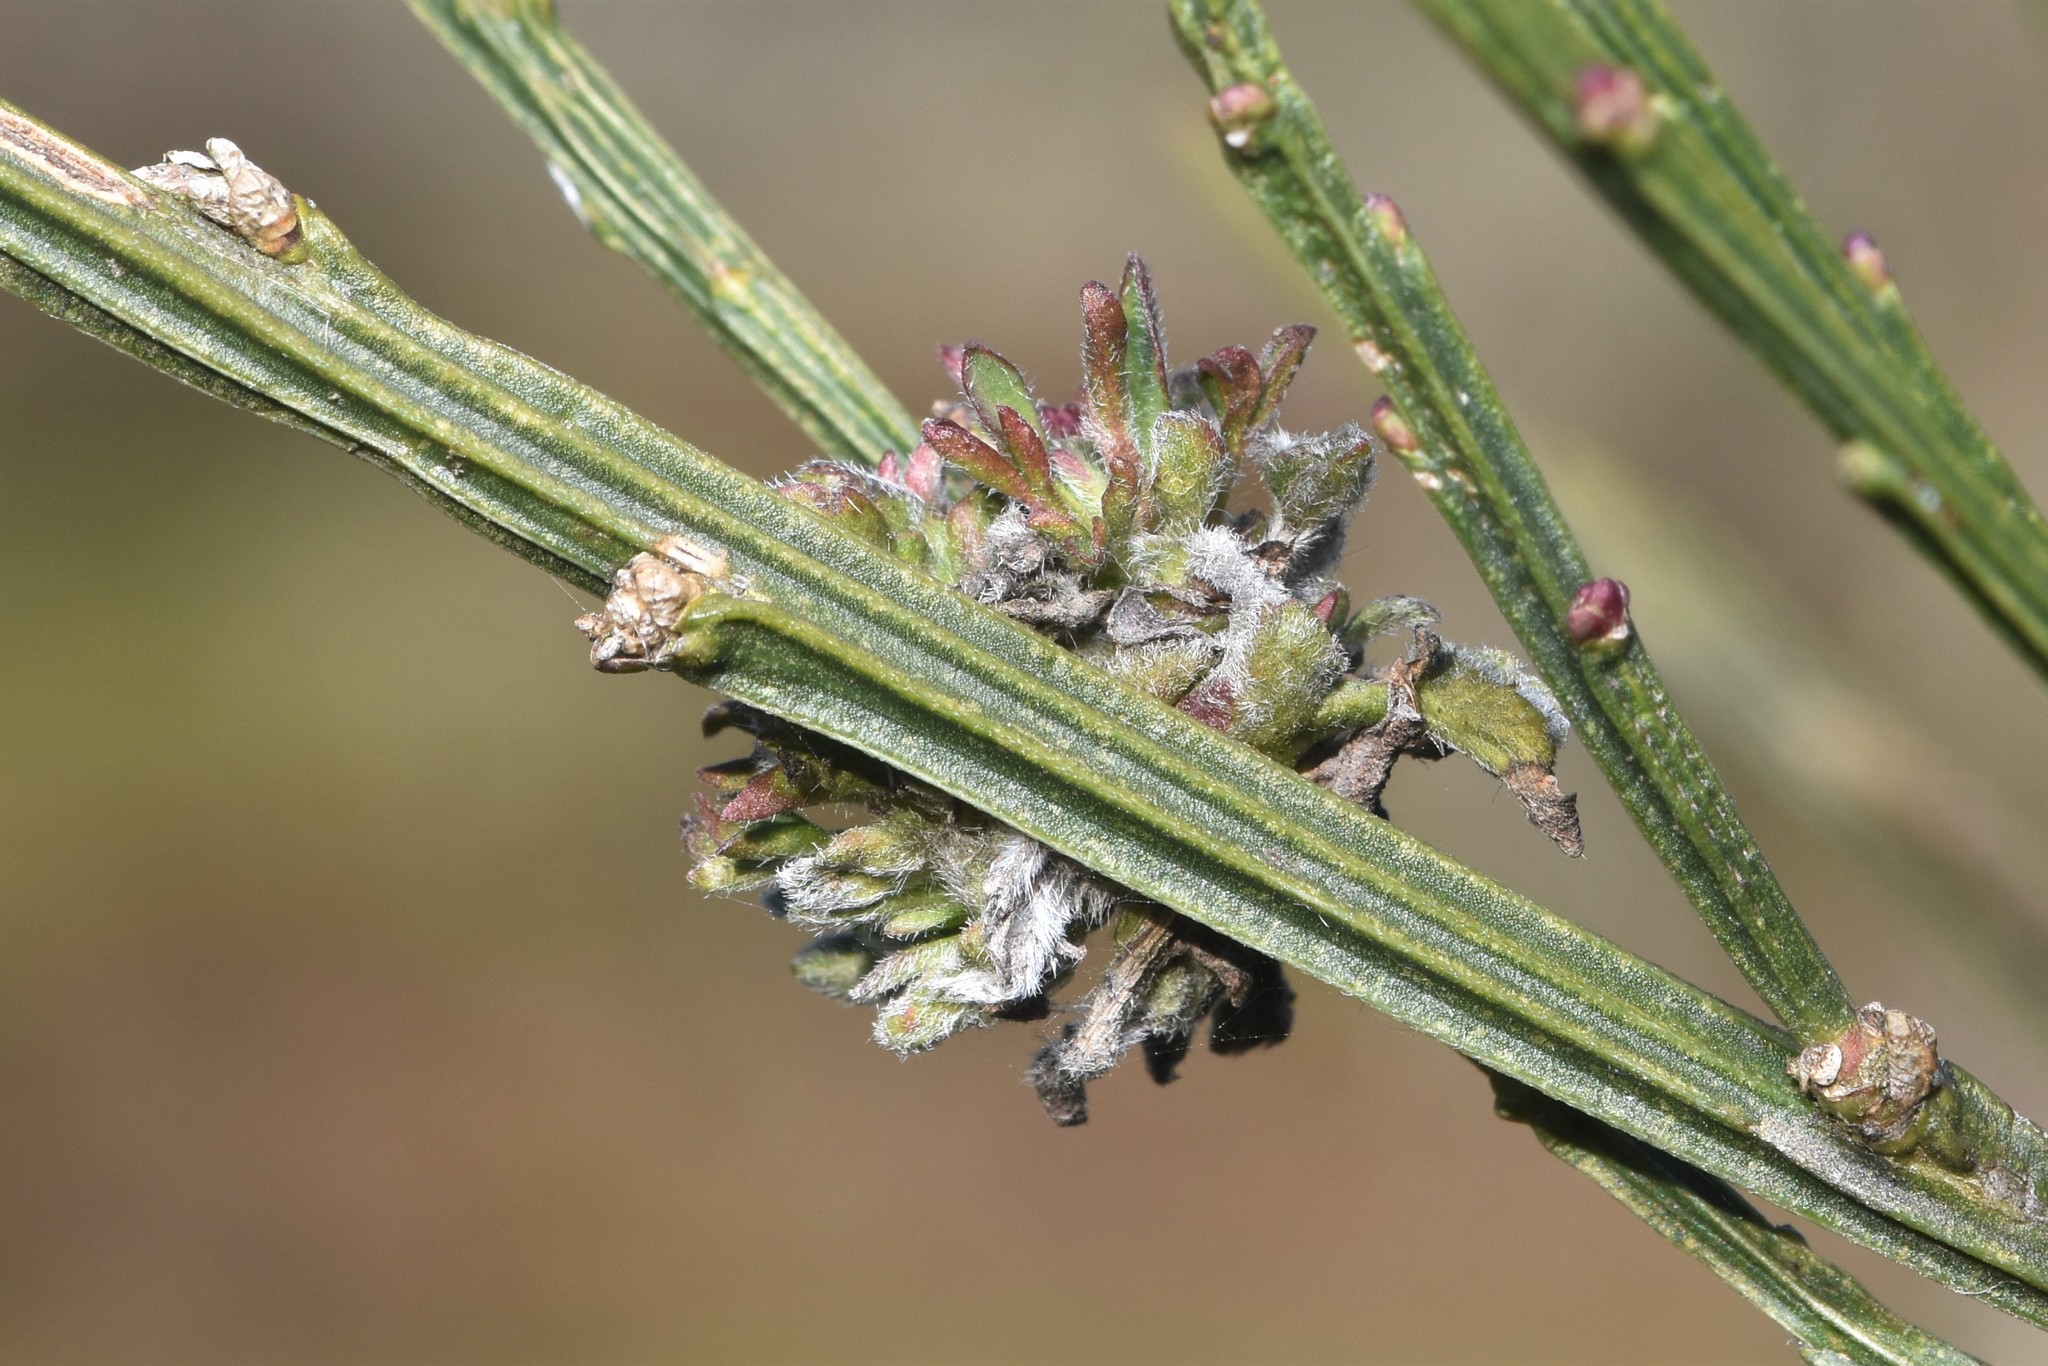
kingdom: Animalia
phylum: Arthropoda
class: Arachnida
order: Trombidiformes
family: Eriophyidae
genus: Aceria
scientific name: Aceria genistae
